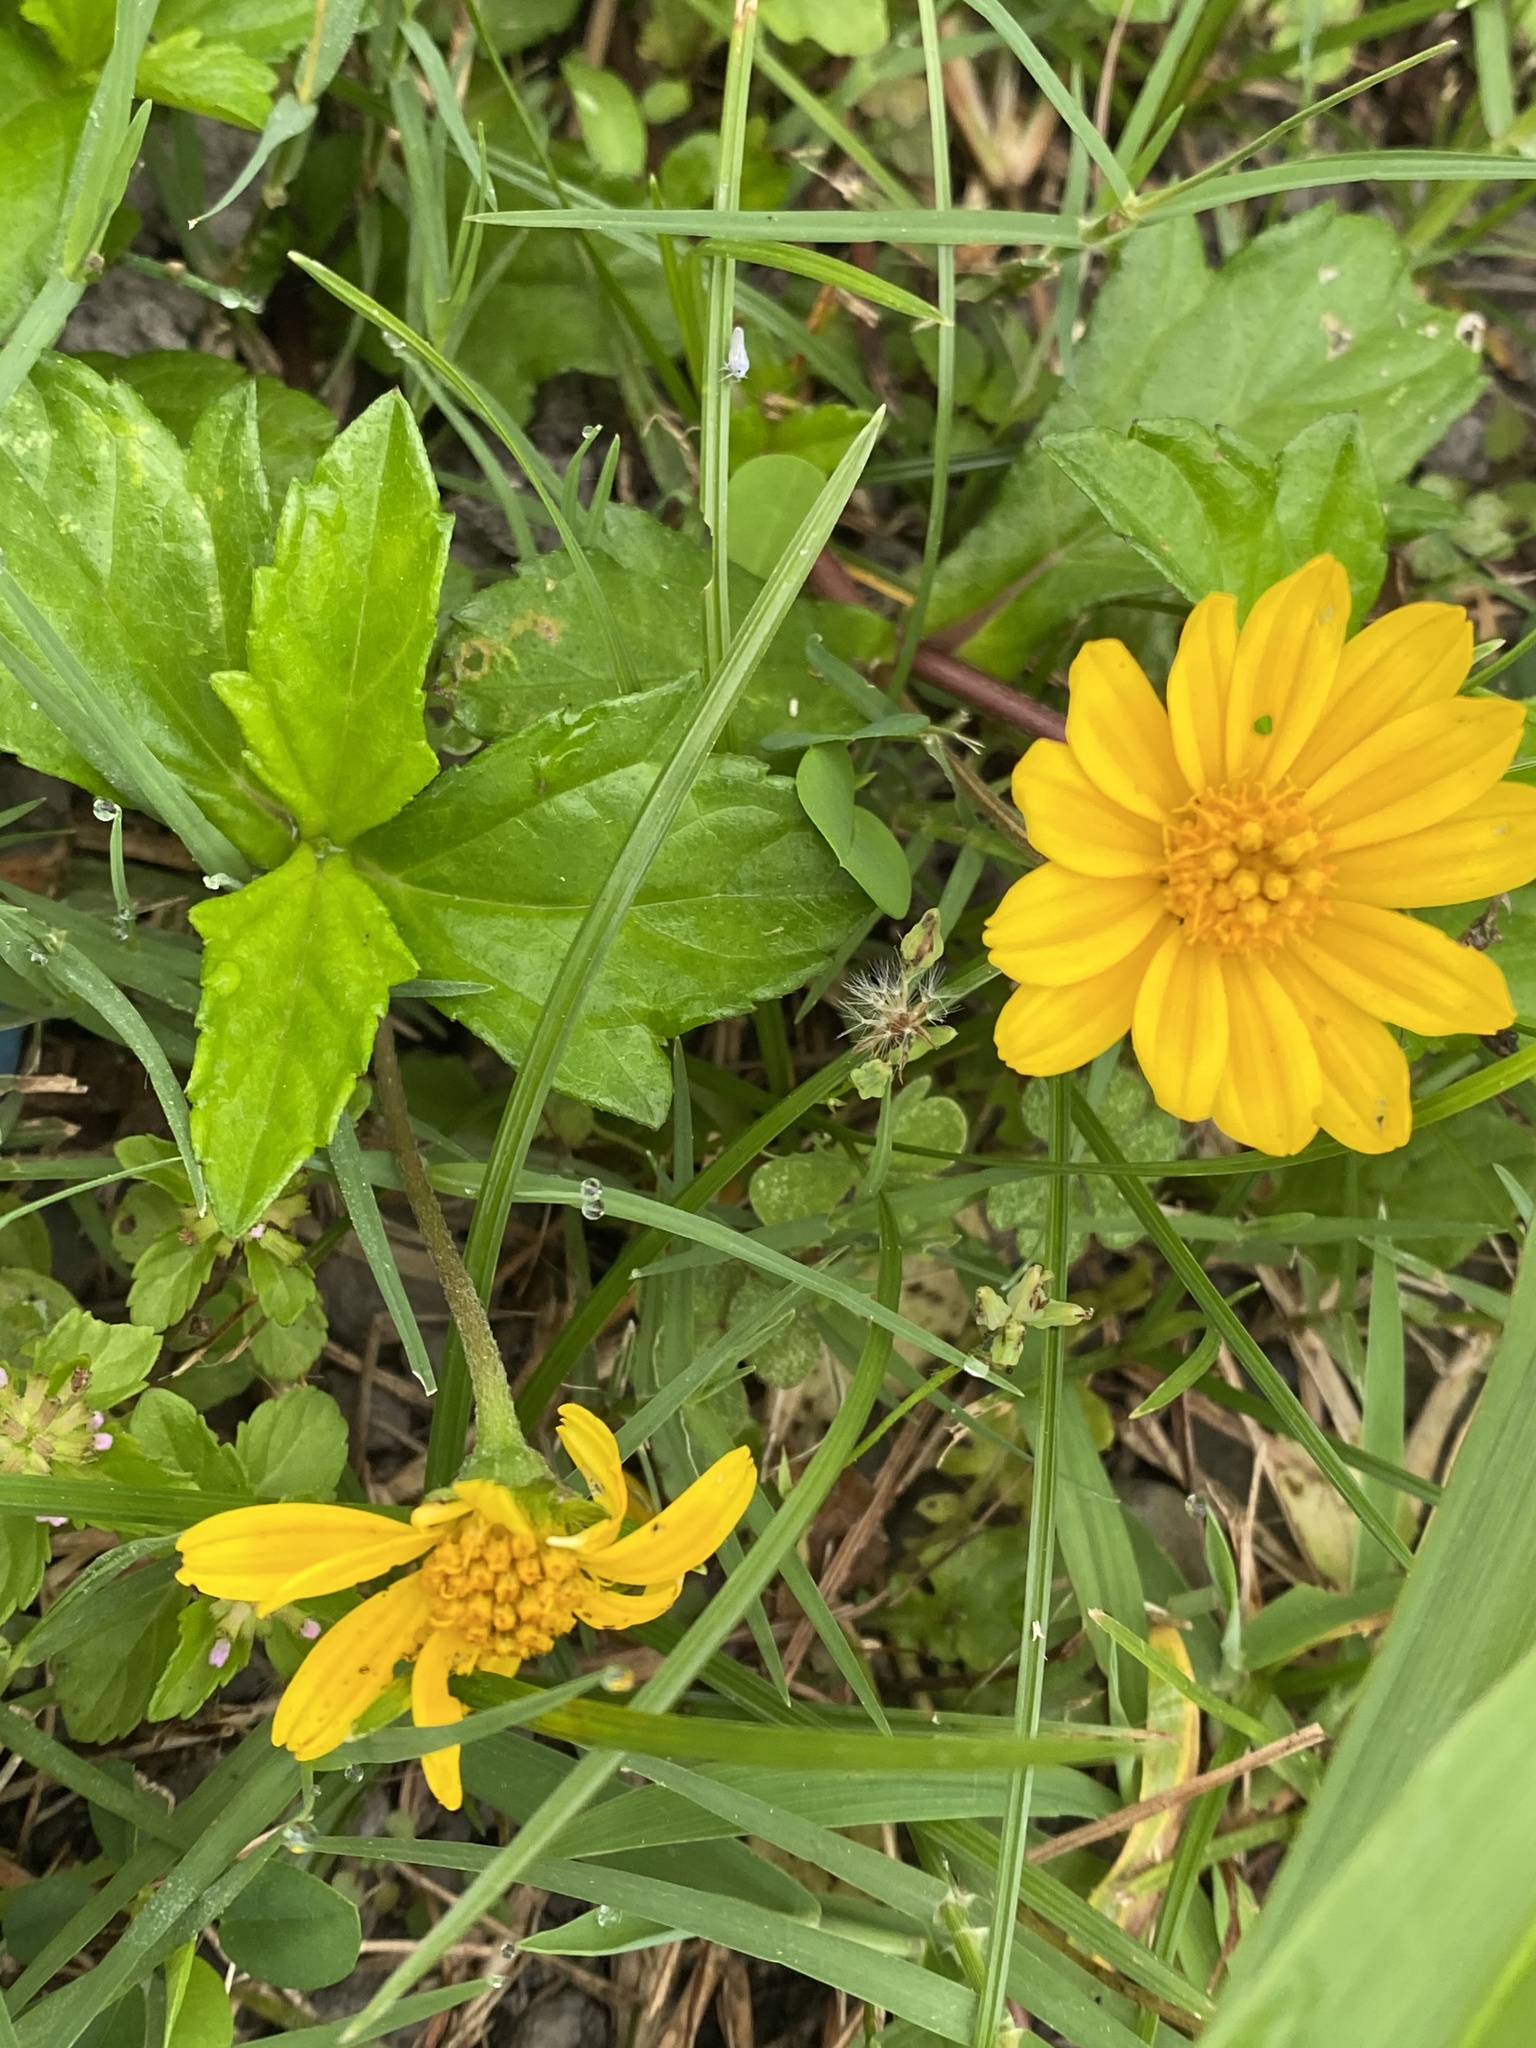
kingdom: Plantae
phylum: Tracheophyta
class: Magnoliopsida
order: Asterales
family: Asteraceae
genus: Sphagneticola
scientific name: Sphagneticola trilobata
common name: Bay biscayne creeping-oxeye
